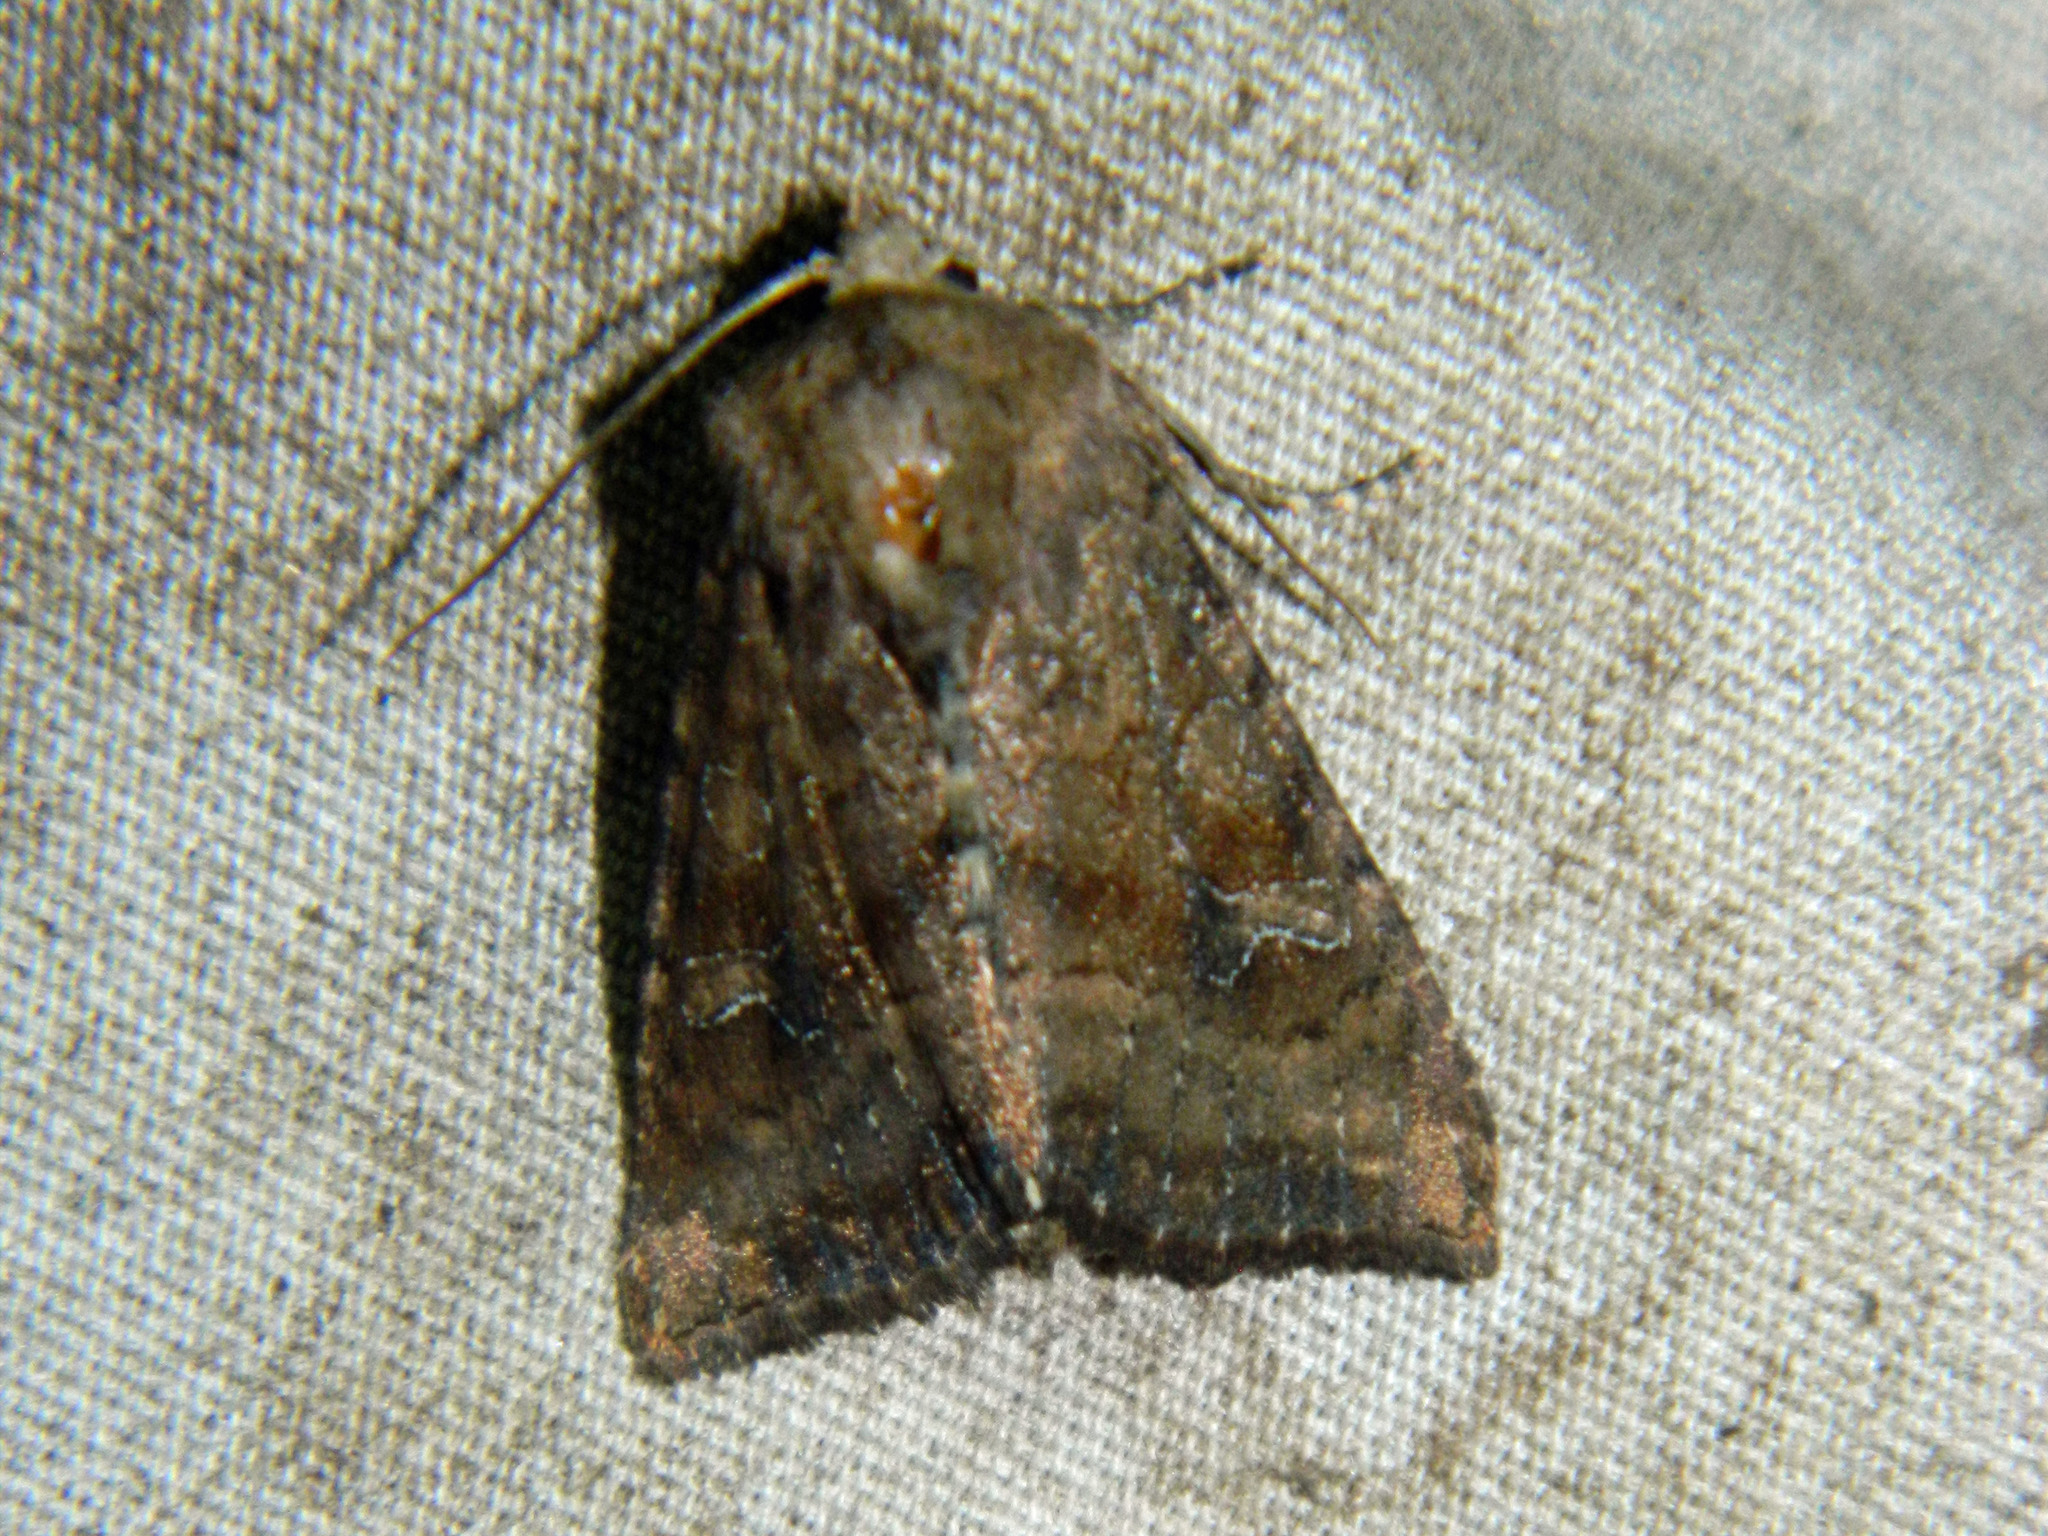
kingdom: Animalia
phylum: Arthropoda
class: Insecta
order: Lepidoptera
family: Noctuidae
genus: Loscopia
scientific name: Loscopia velata
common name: Veiled ear moth
